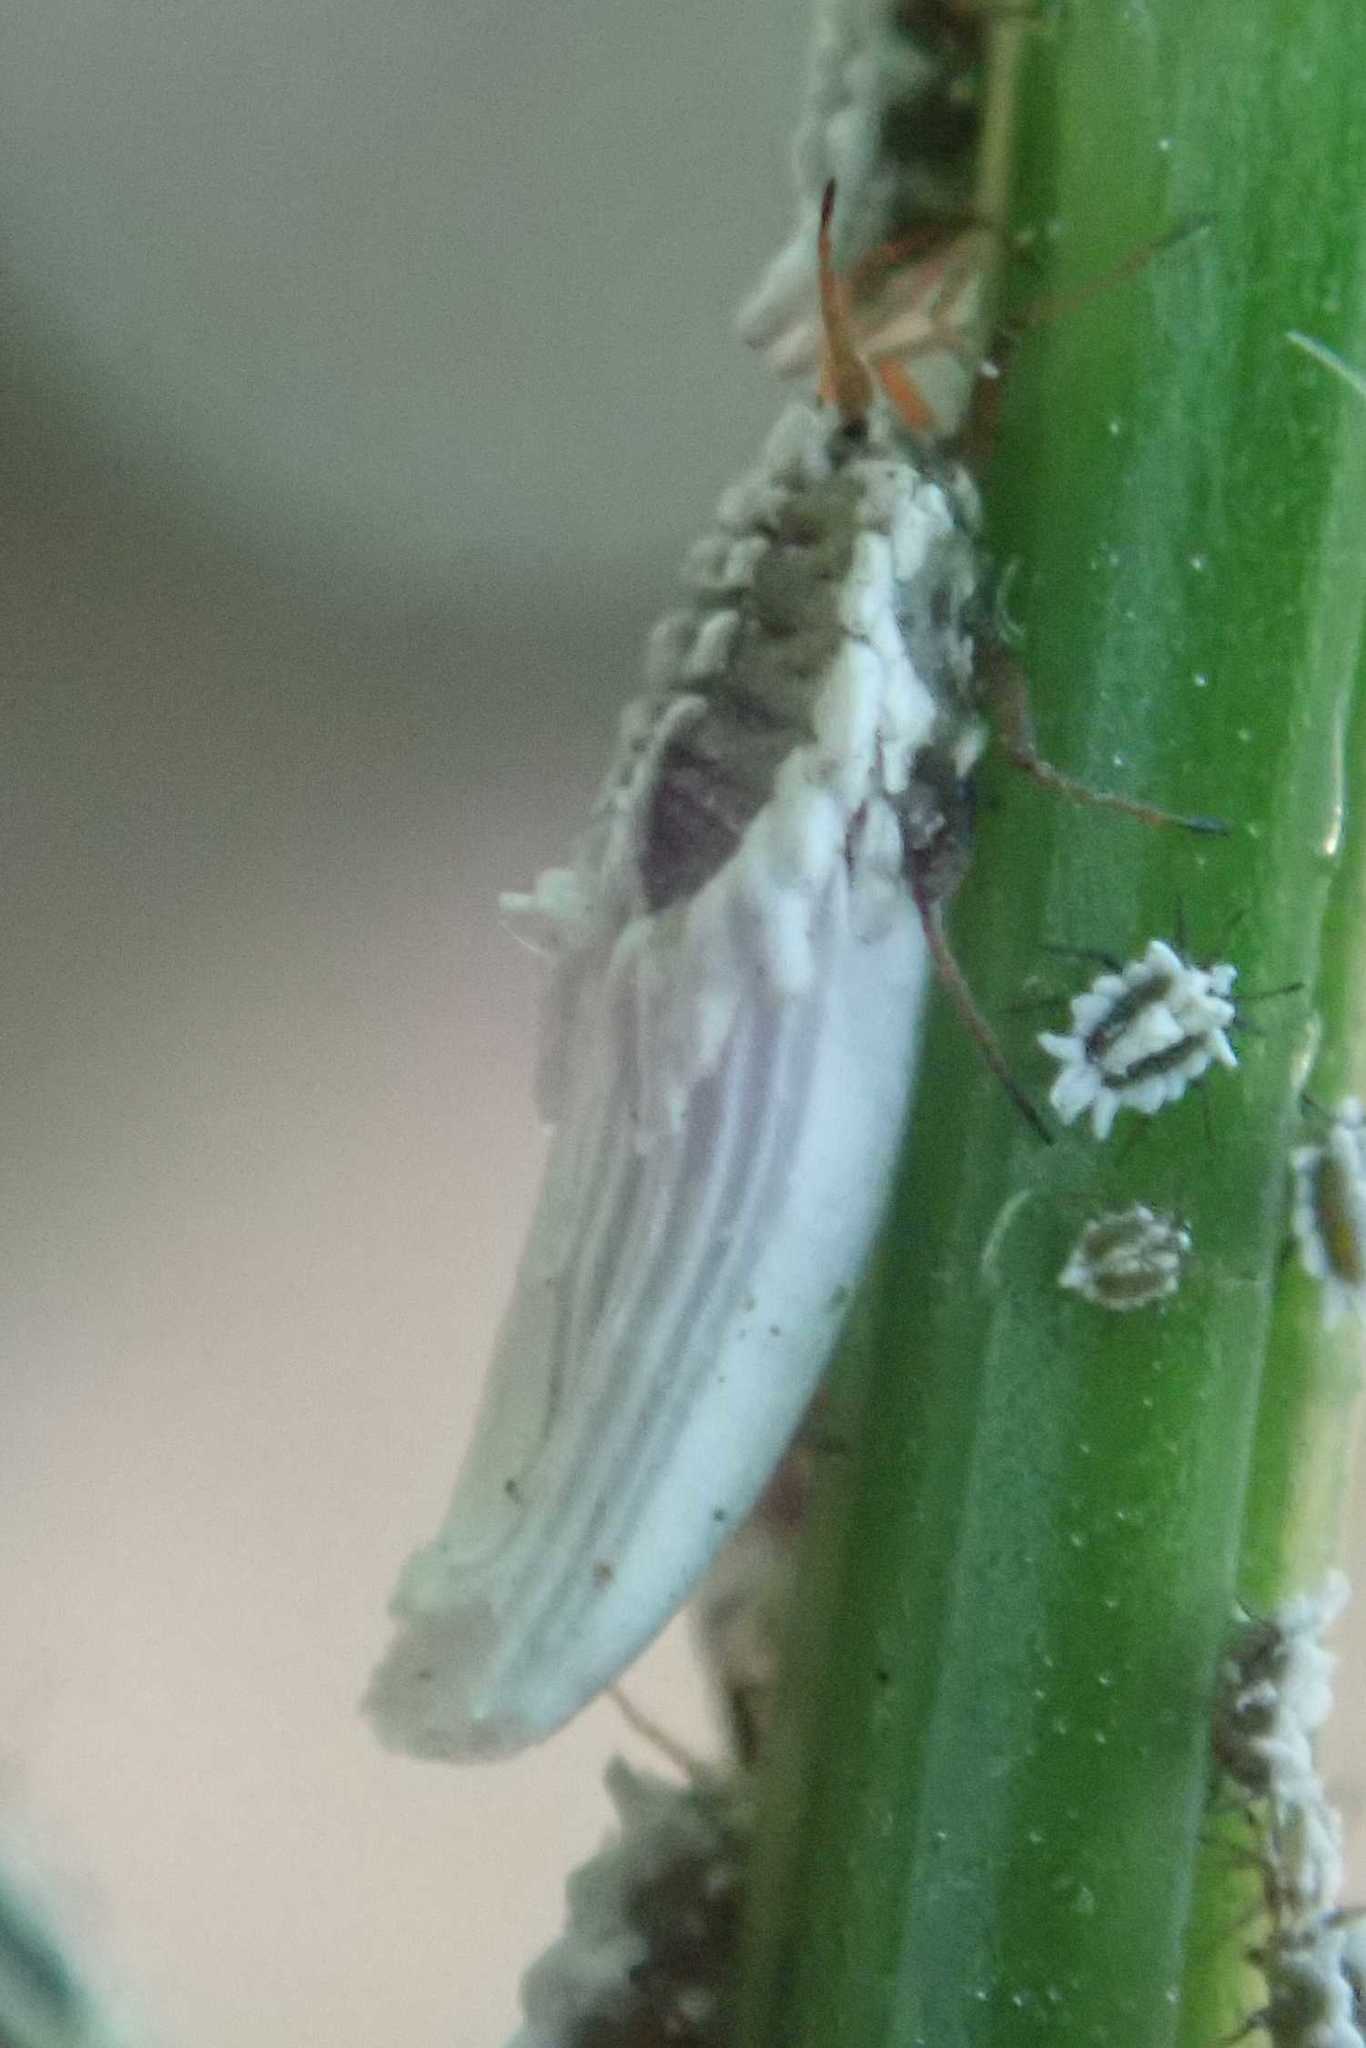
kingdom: Animalia
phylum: Arthropoda
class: Insecta
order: Hemiptera
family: Ortheziidae
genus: Insignorthezia
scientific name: Insignorthezia insignis
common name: Greenhouse orthezia
